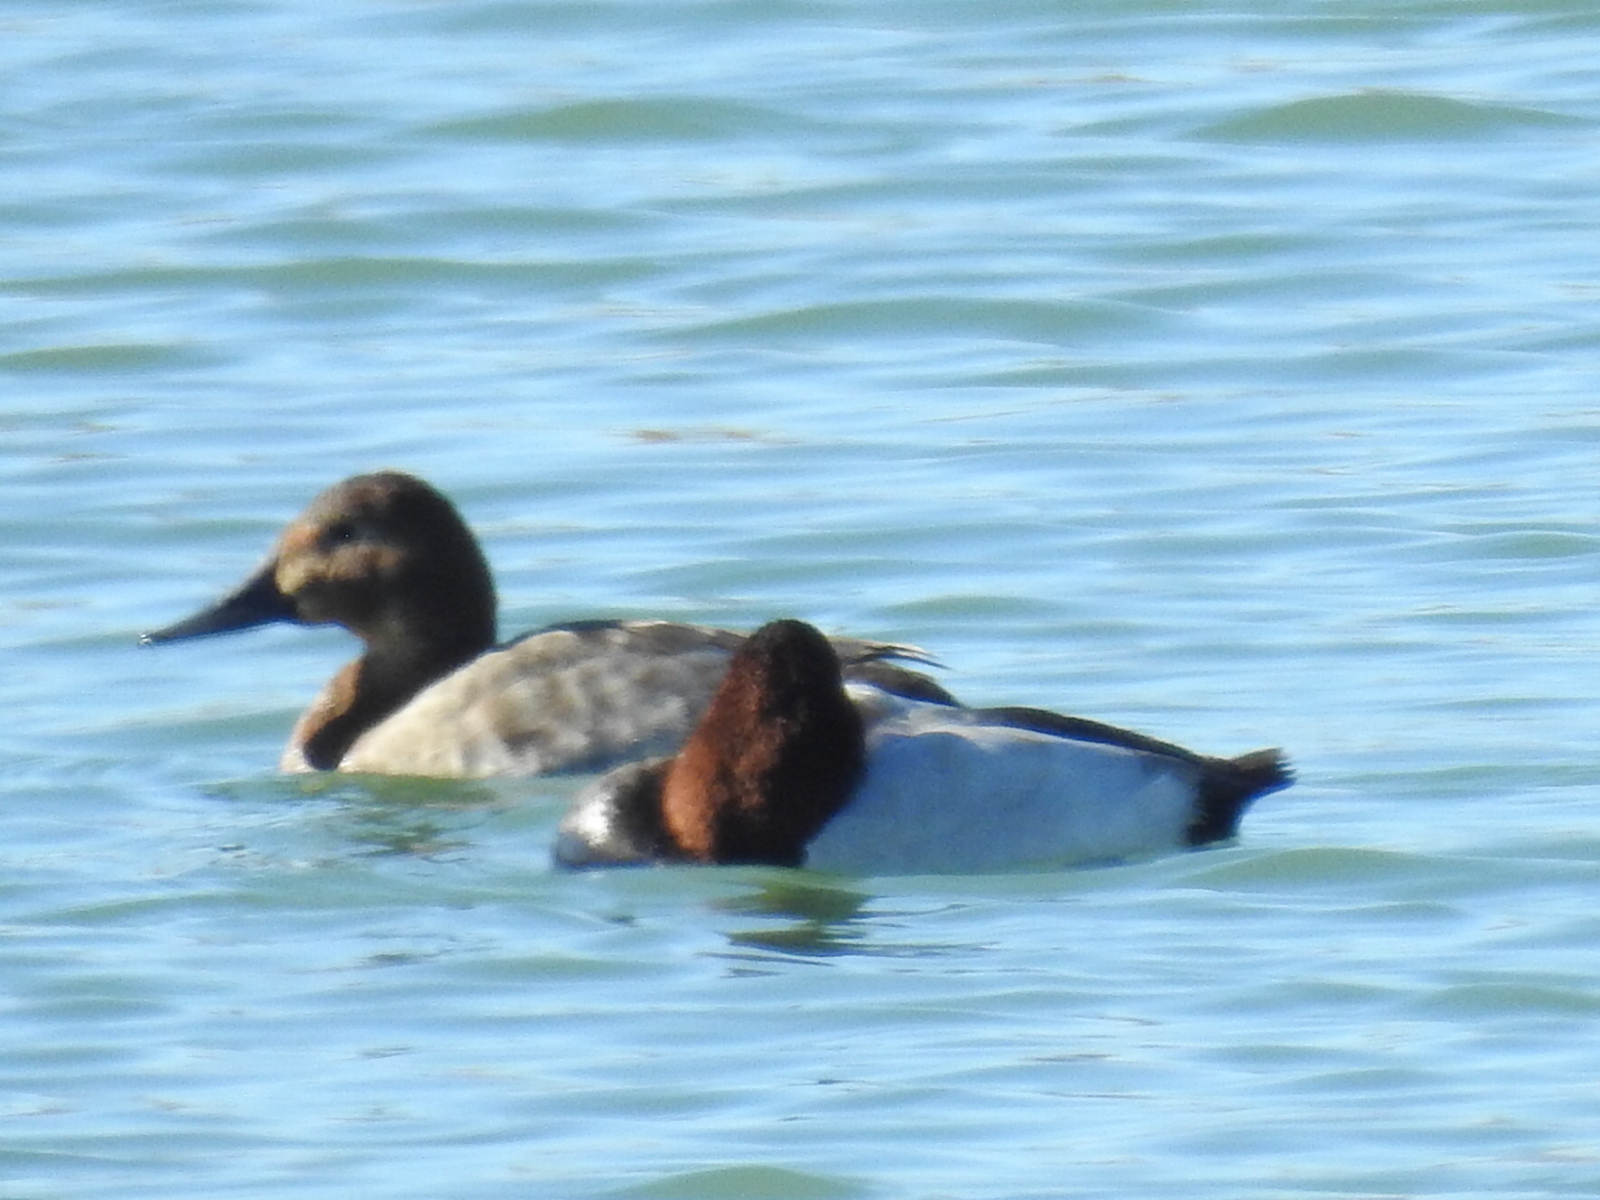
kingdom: Animalia
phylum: Chordata
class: Aves
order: Anseriformes
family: Anatidae
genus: Aythya
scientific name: Aythya valisineria
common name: Canvasback
